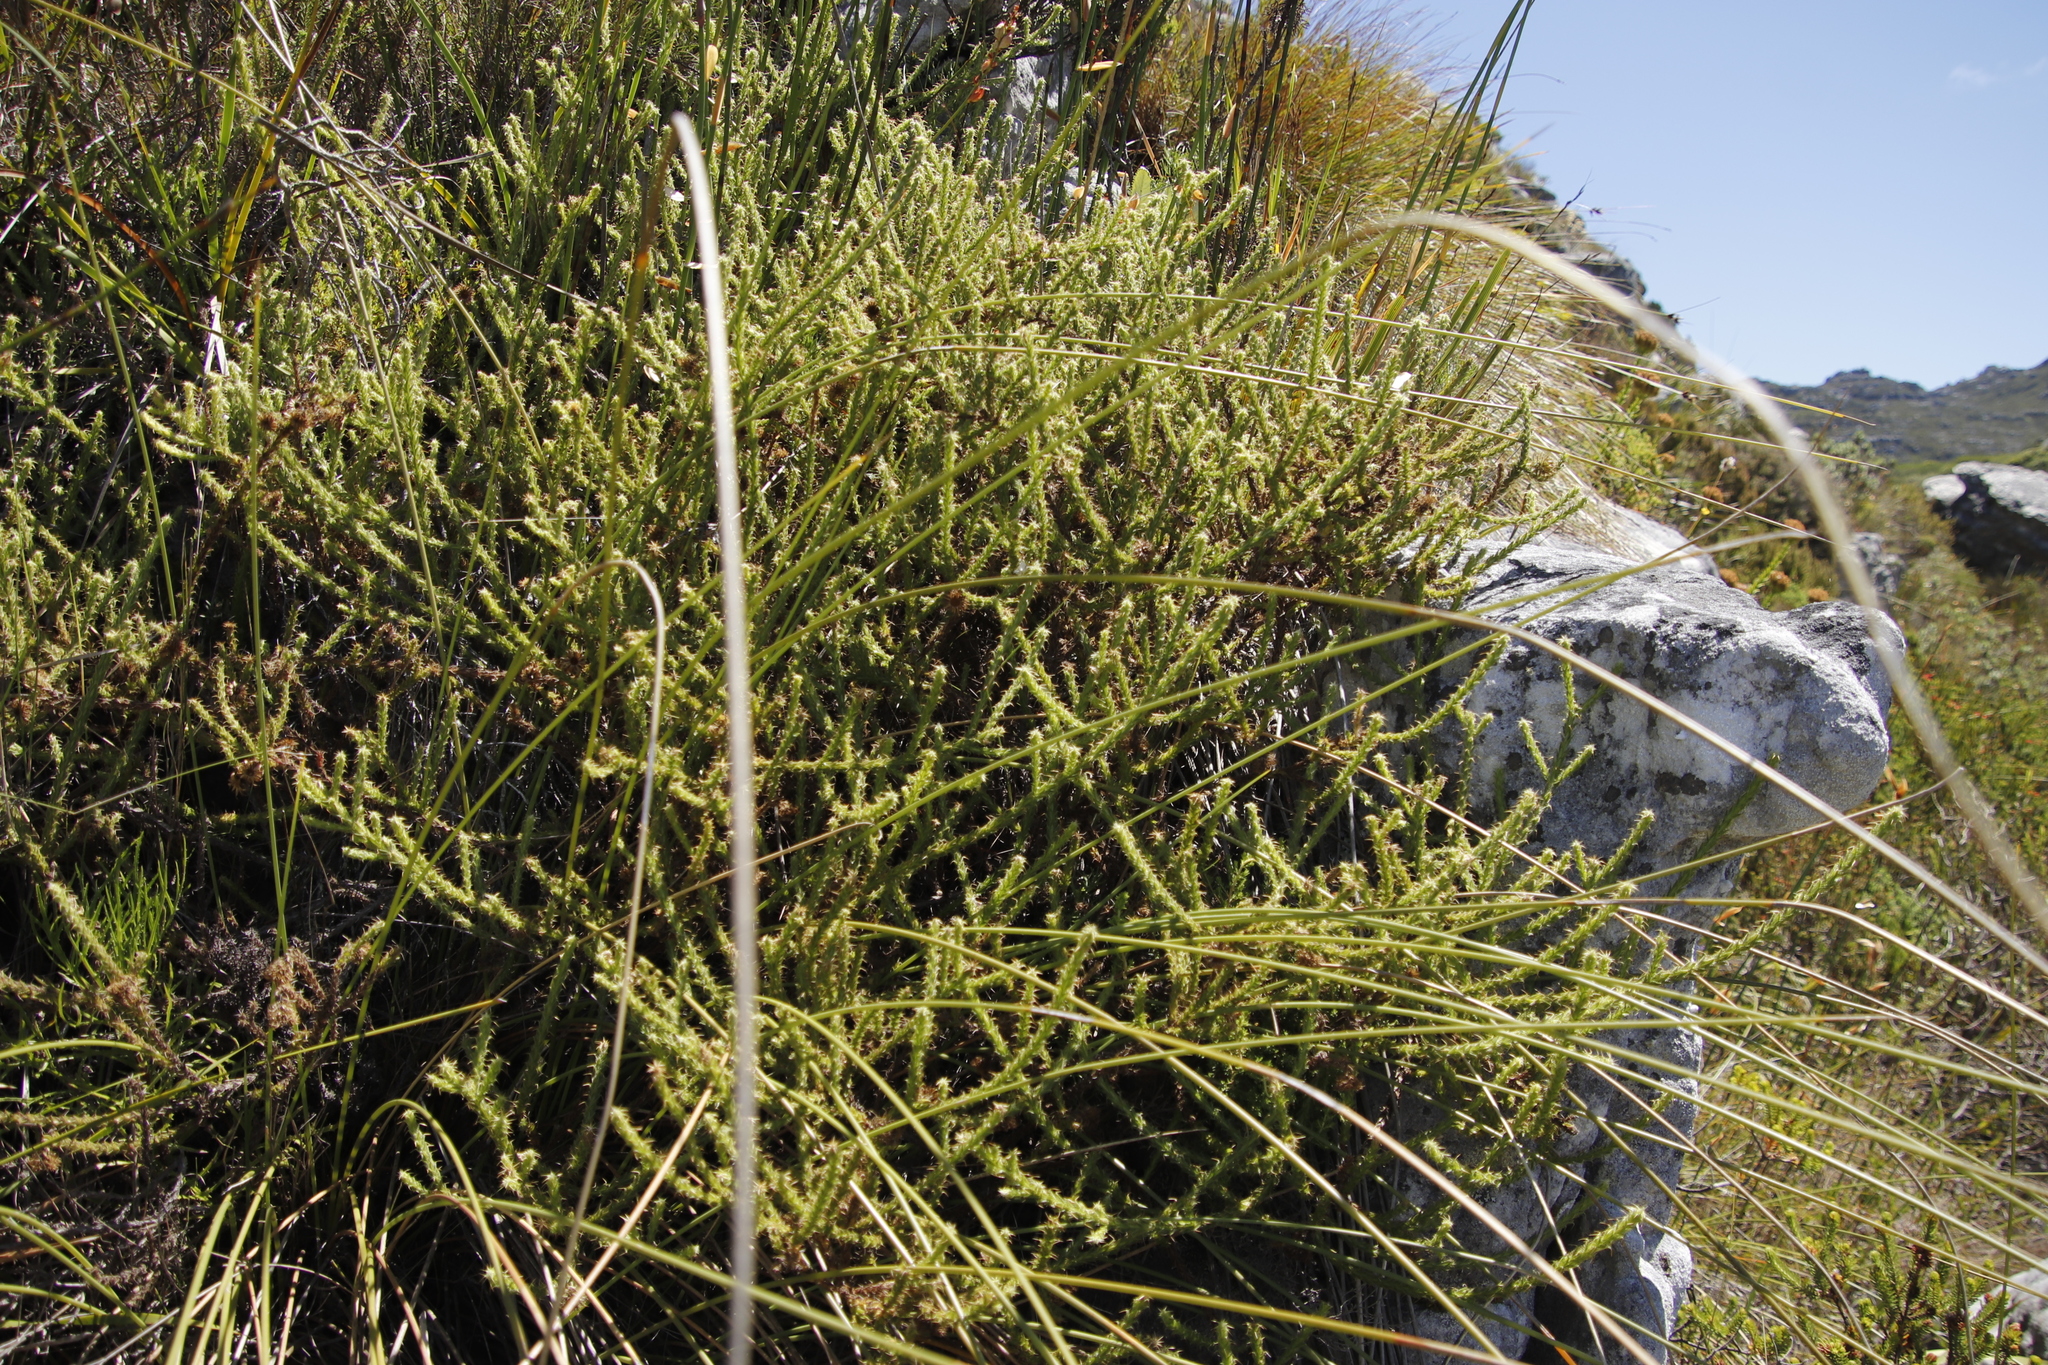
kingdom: Plantae
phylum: Tracheophyta
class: Magnoliopsida
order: Asterales
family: Asteraceae
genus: Cullumia
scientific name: Cullumia reticulata
